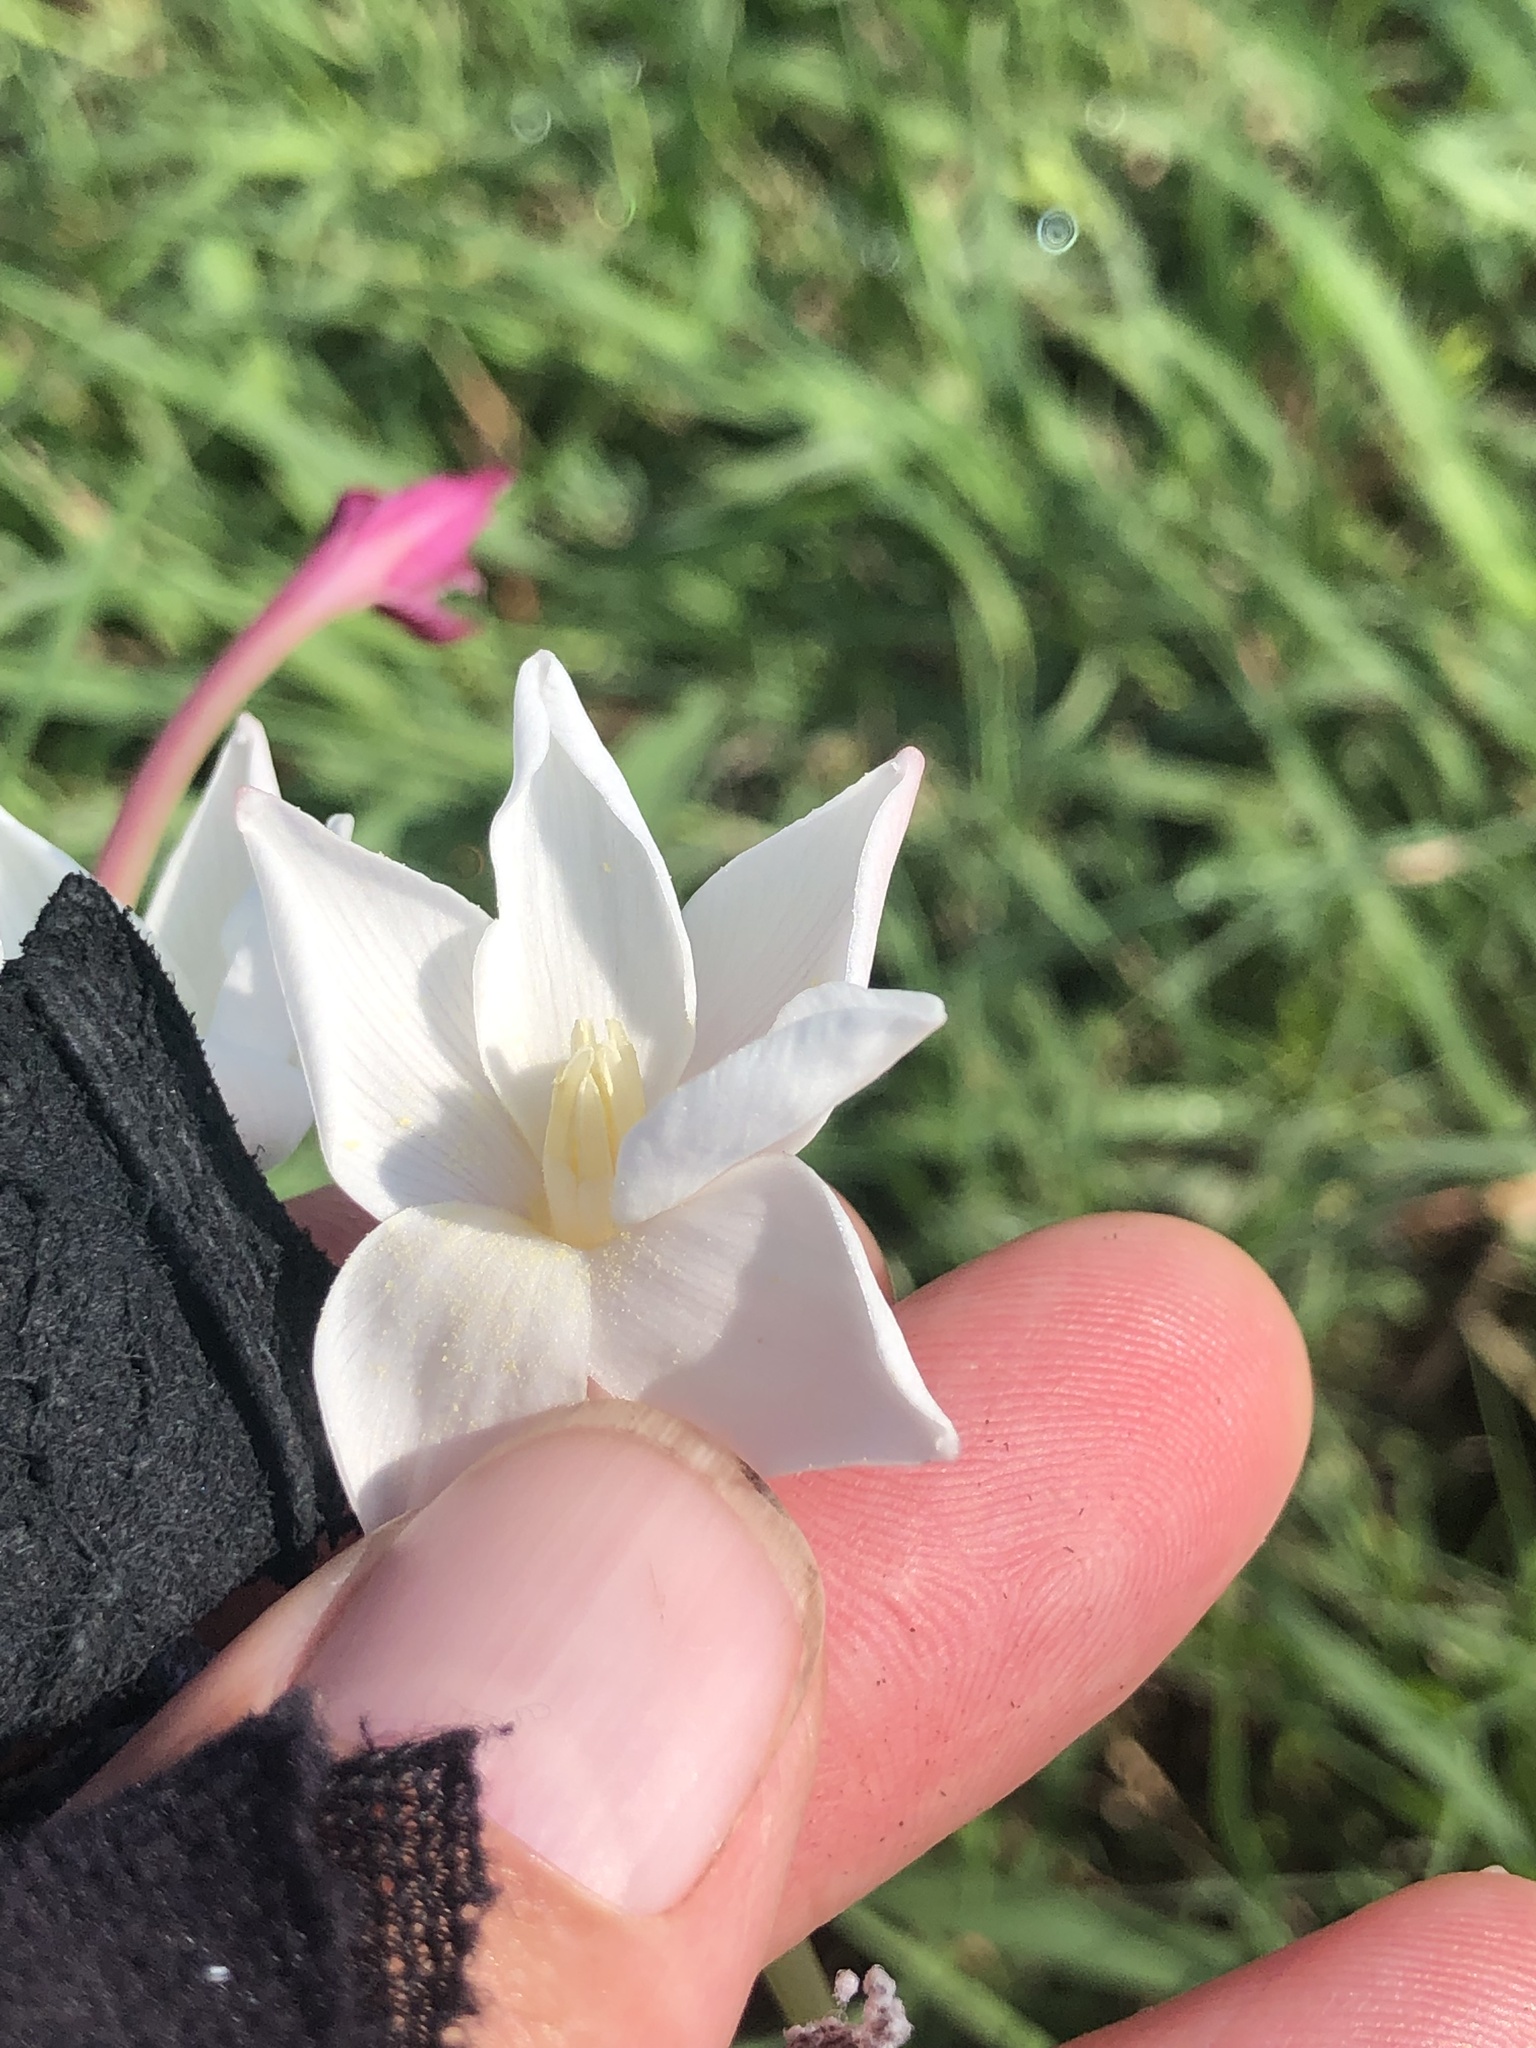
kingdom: Plantae
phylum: Tracheophyta
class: Liliopsida
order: Asparagales
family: Amaryllidaceae
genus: Zephyranthes
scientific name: Zephyranthes chlorosolen
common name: Evening rain-lily
